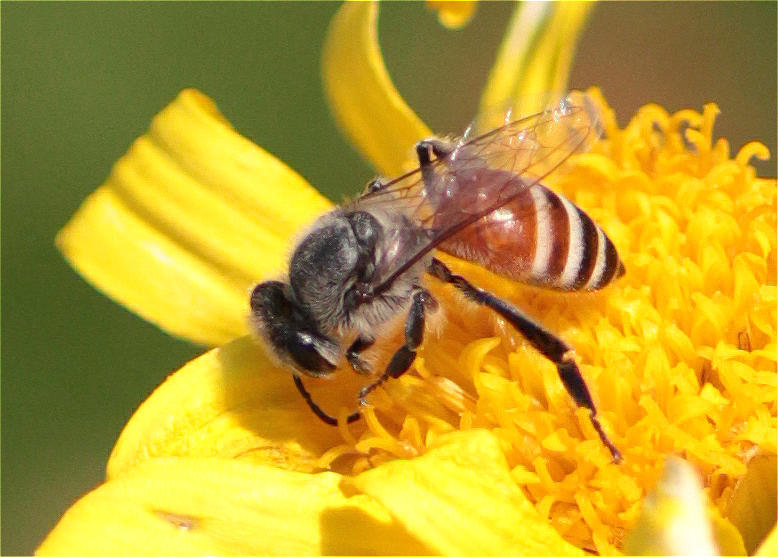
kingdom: Animalia
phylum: Arthropoda
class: Insecta
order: Hymenoptera
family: Apidae
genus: Apis
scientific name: Apis florea
